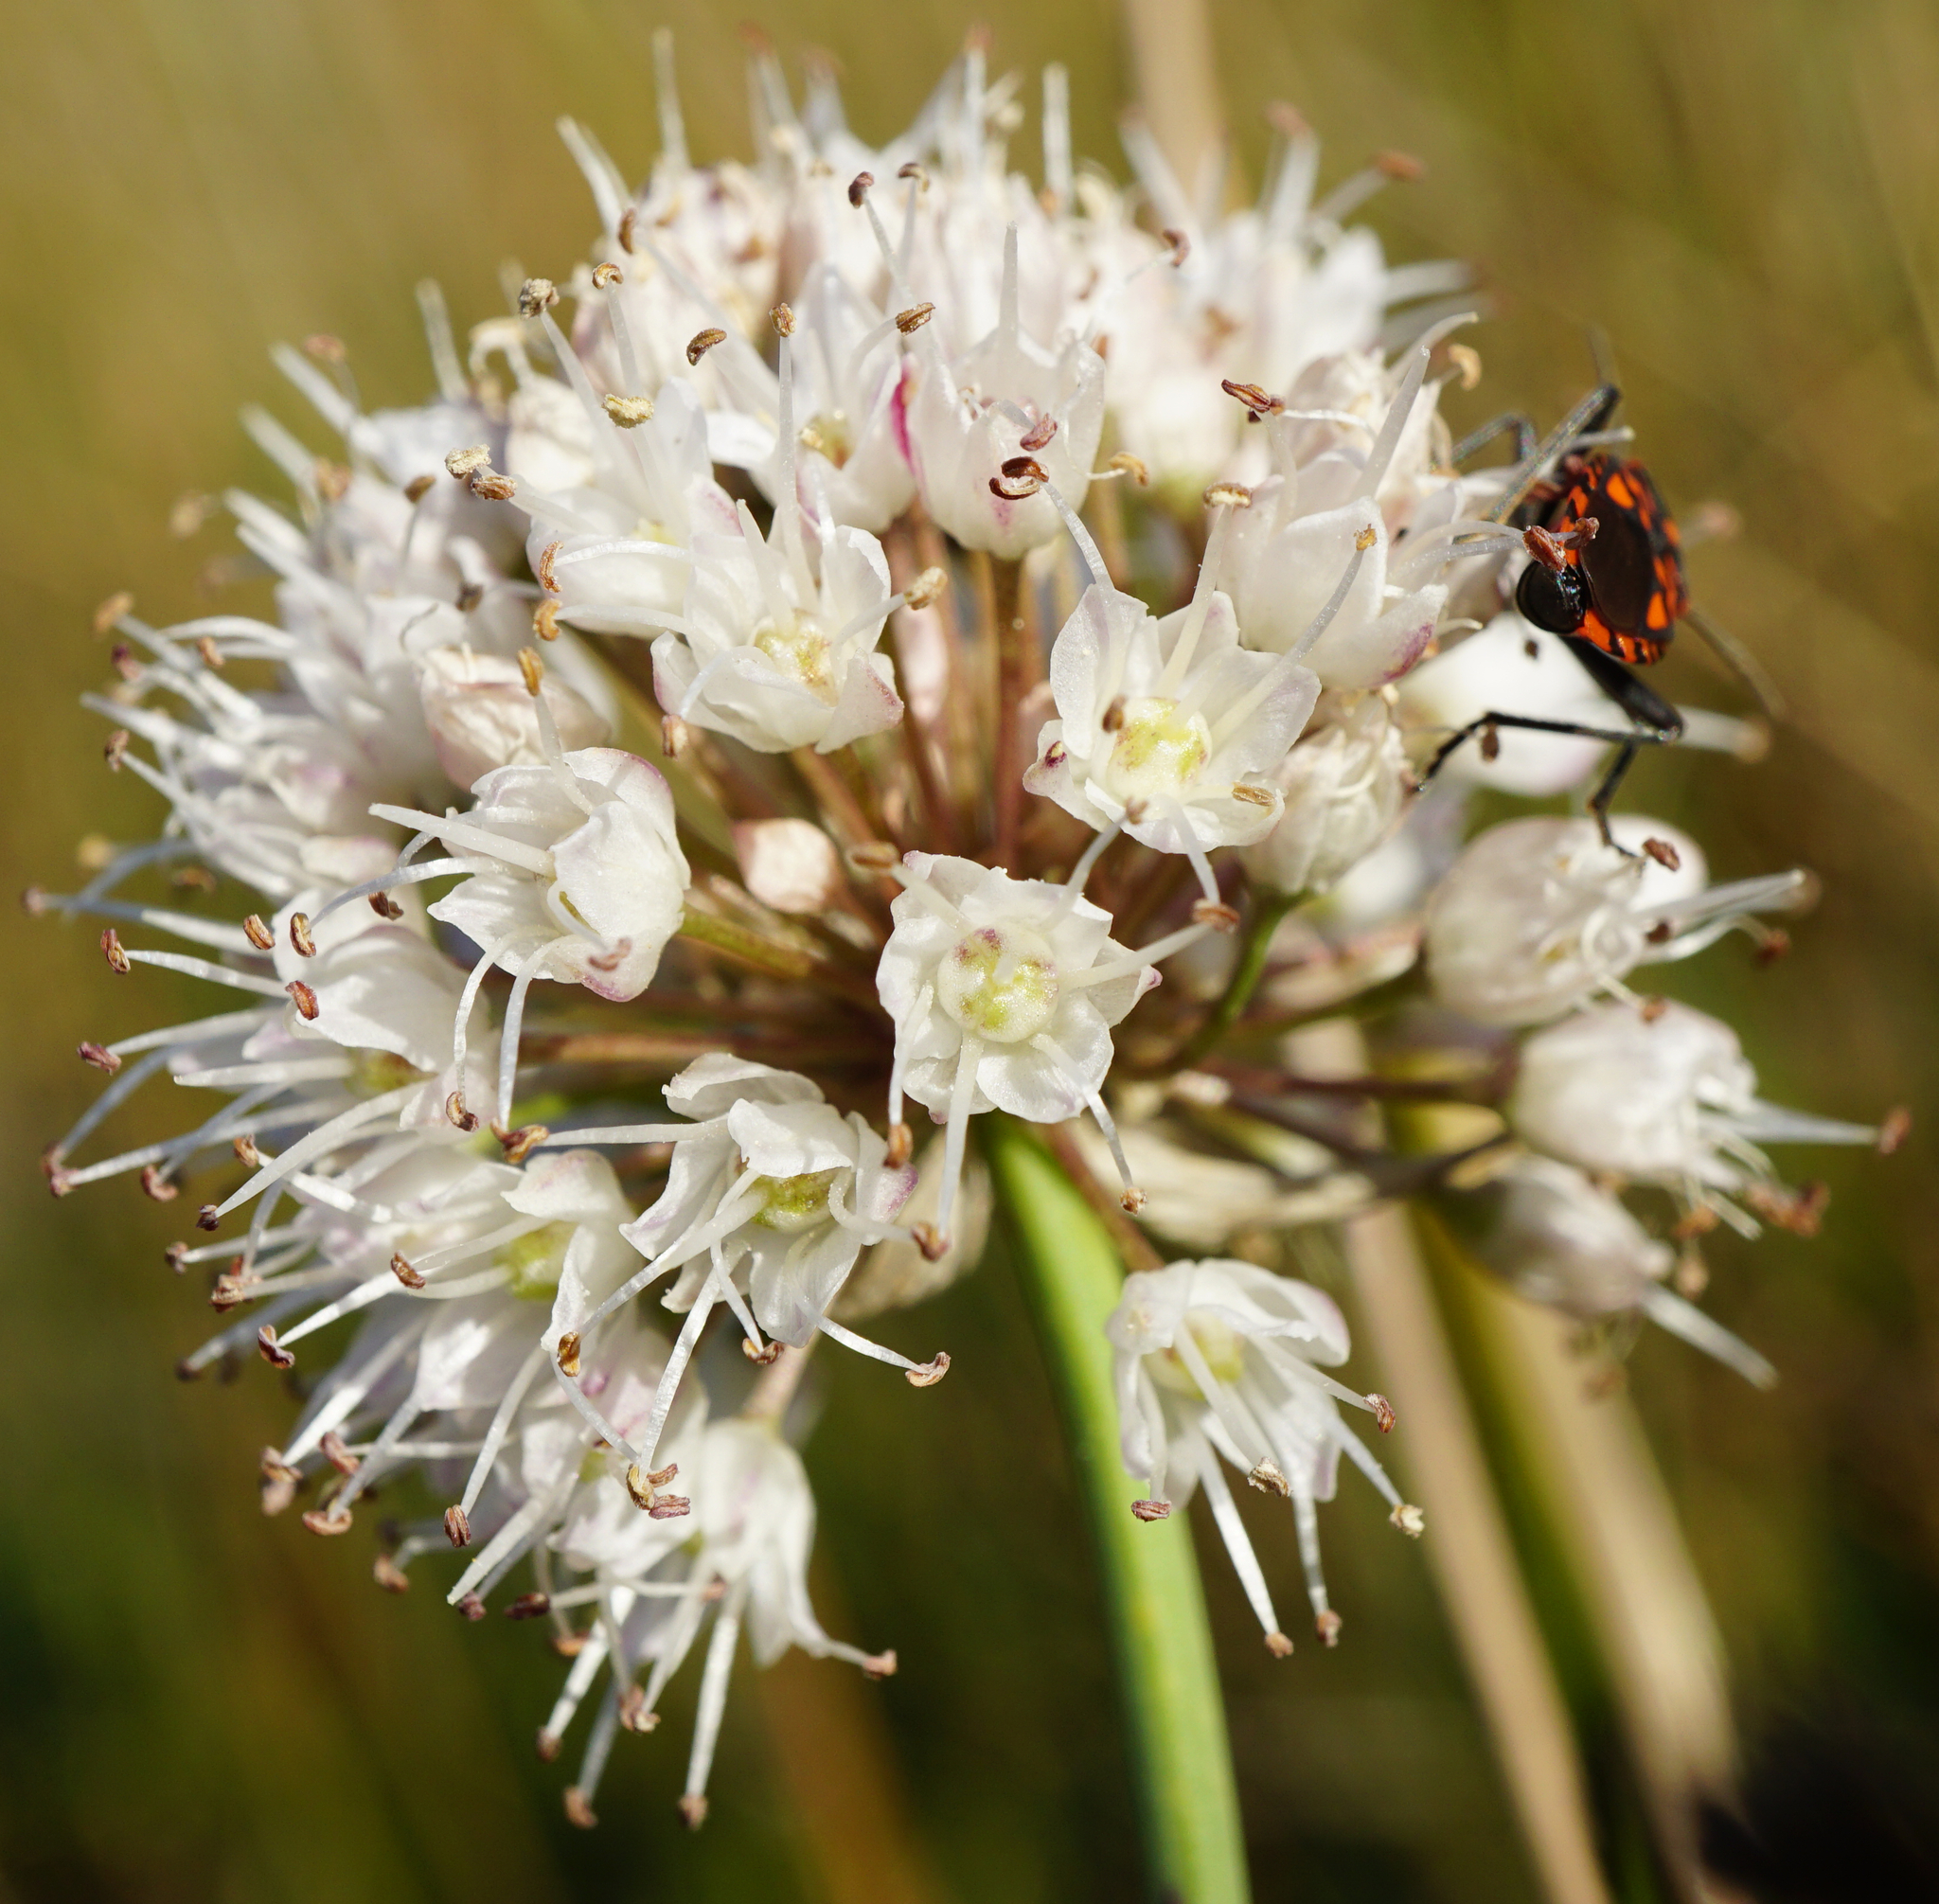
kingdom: Plantae
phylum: Tracheophyta
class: Liliopsida
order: Asparagales
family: Amaryllidaceae
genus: Allium
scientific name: Allium suaveolens
